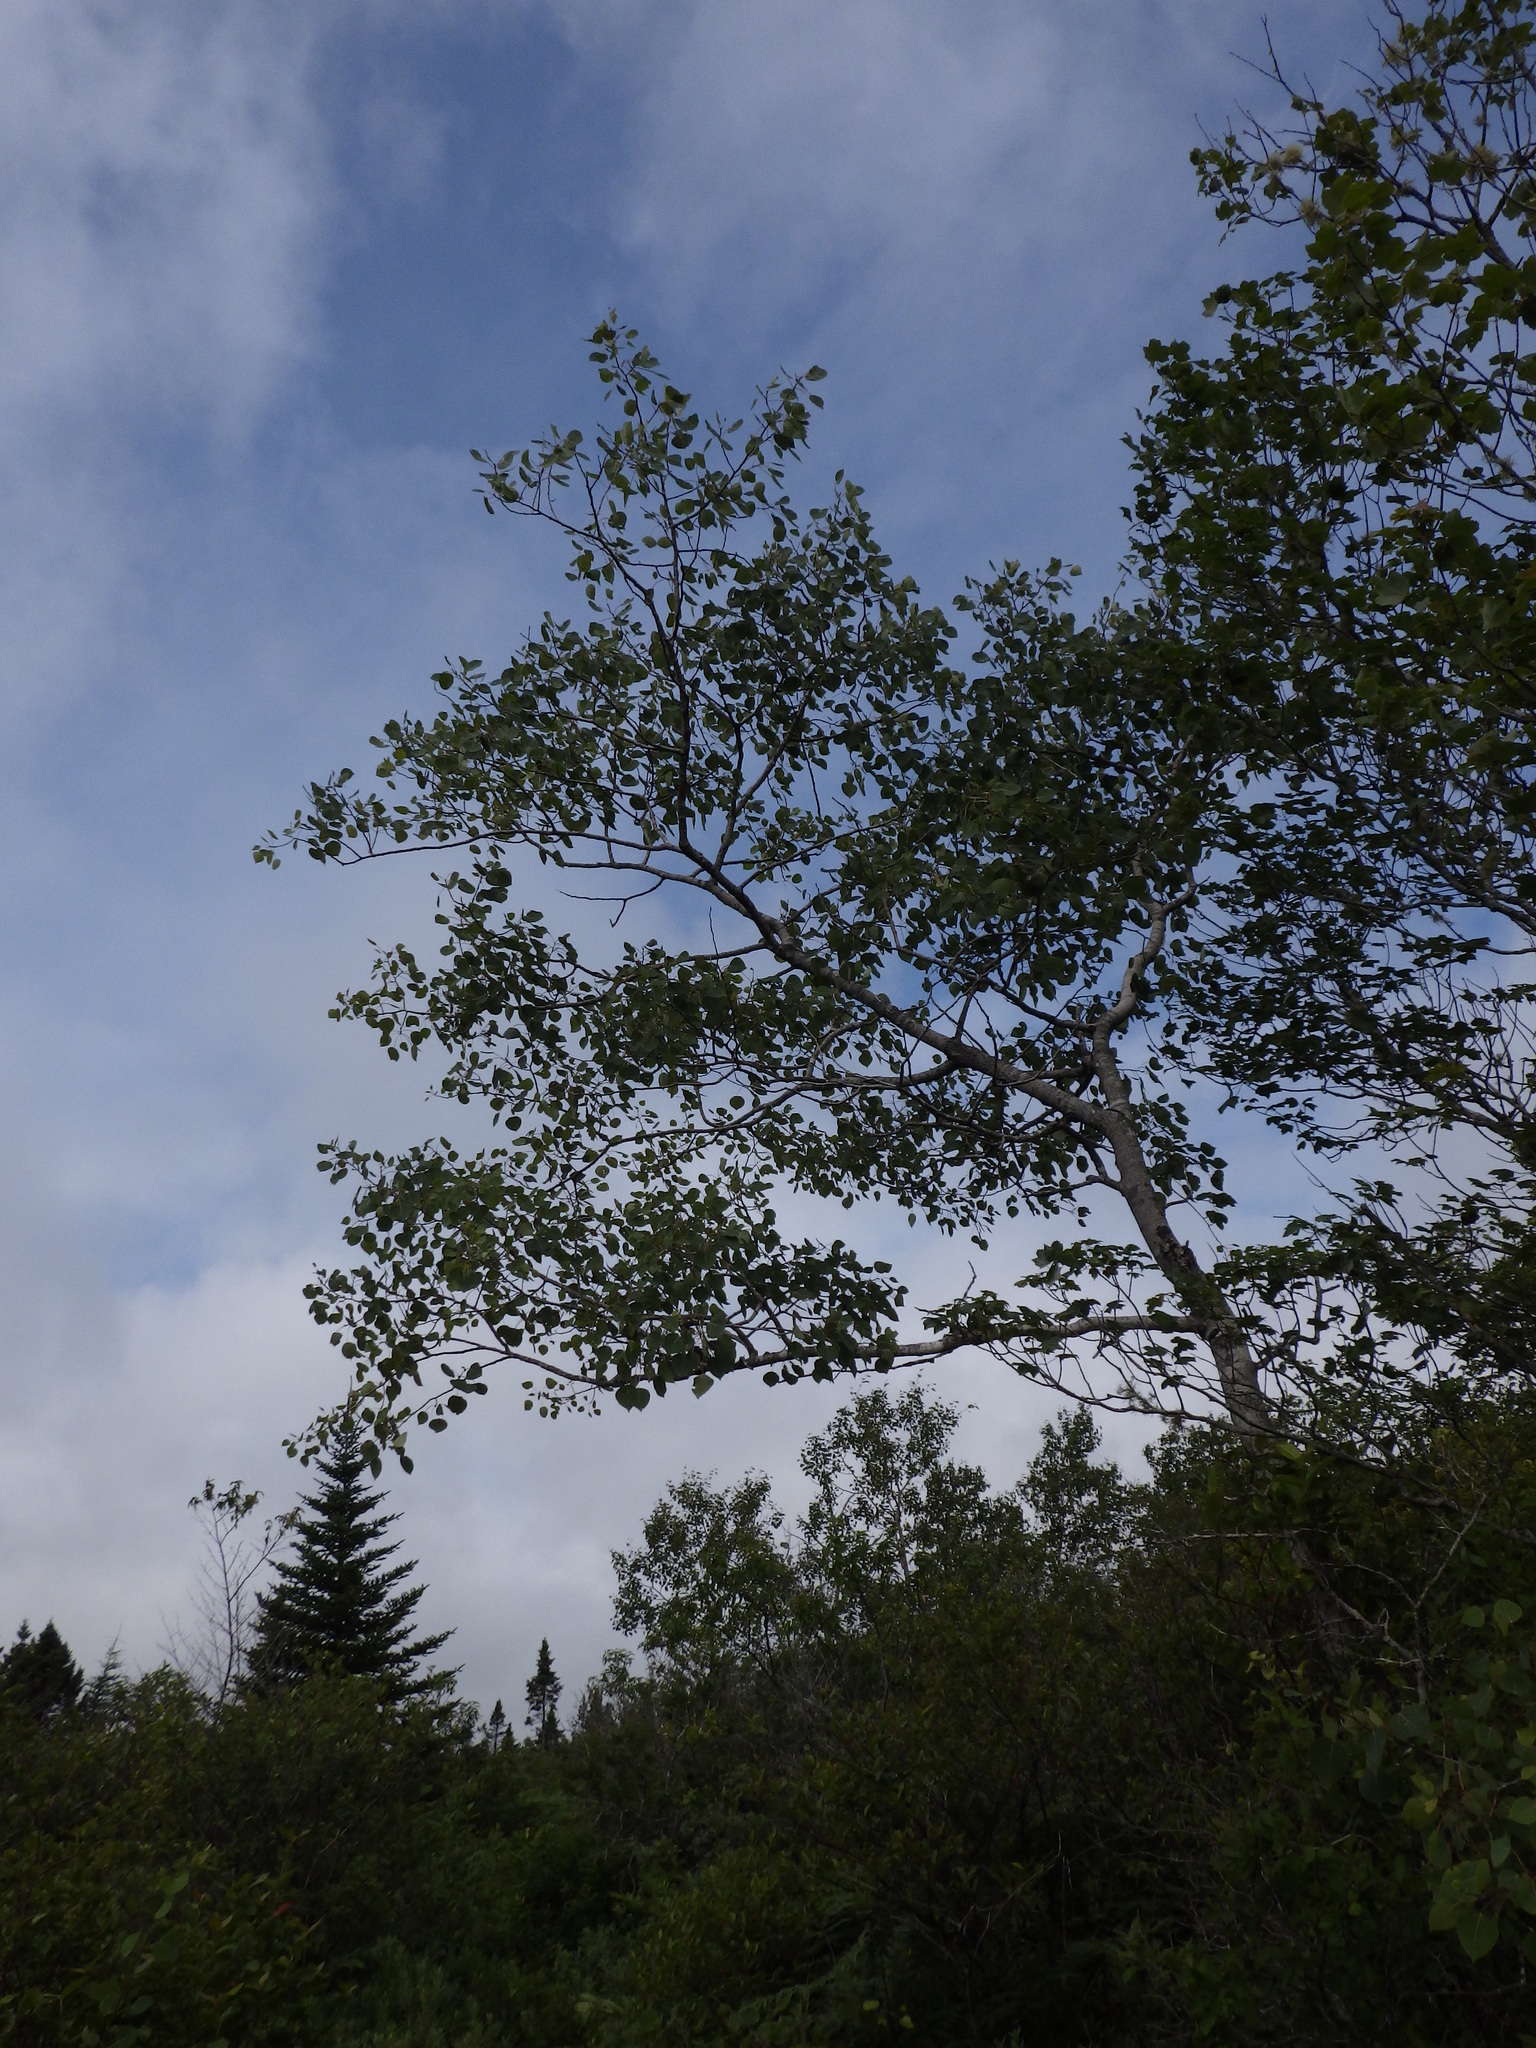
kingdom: Plantae
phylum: Tracheophyta
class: Magnoliopsida
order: Malpighiales
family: Salicaceae
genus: Populus
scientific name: Populus tremuloides
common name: Quaking aspen
